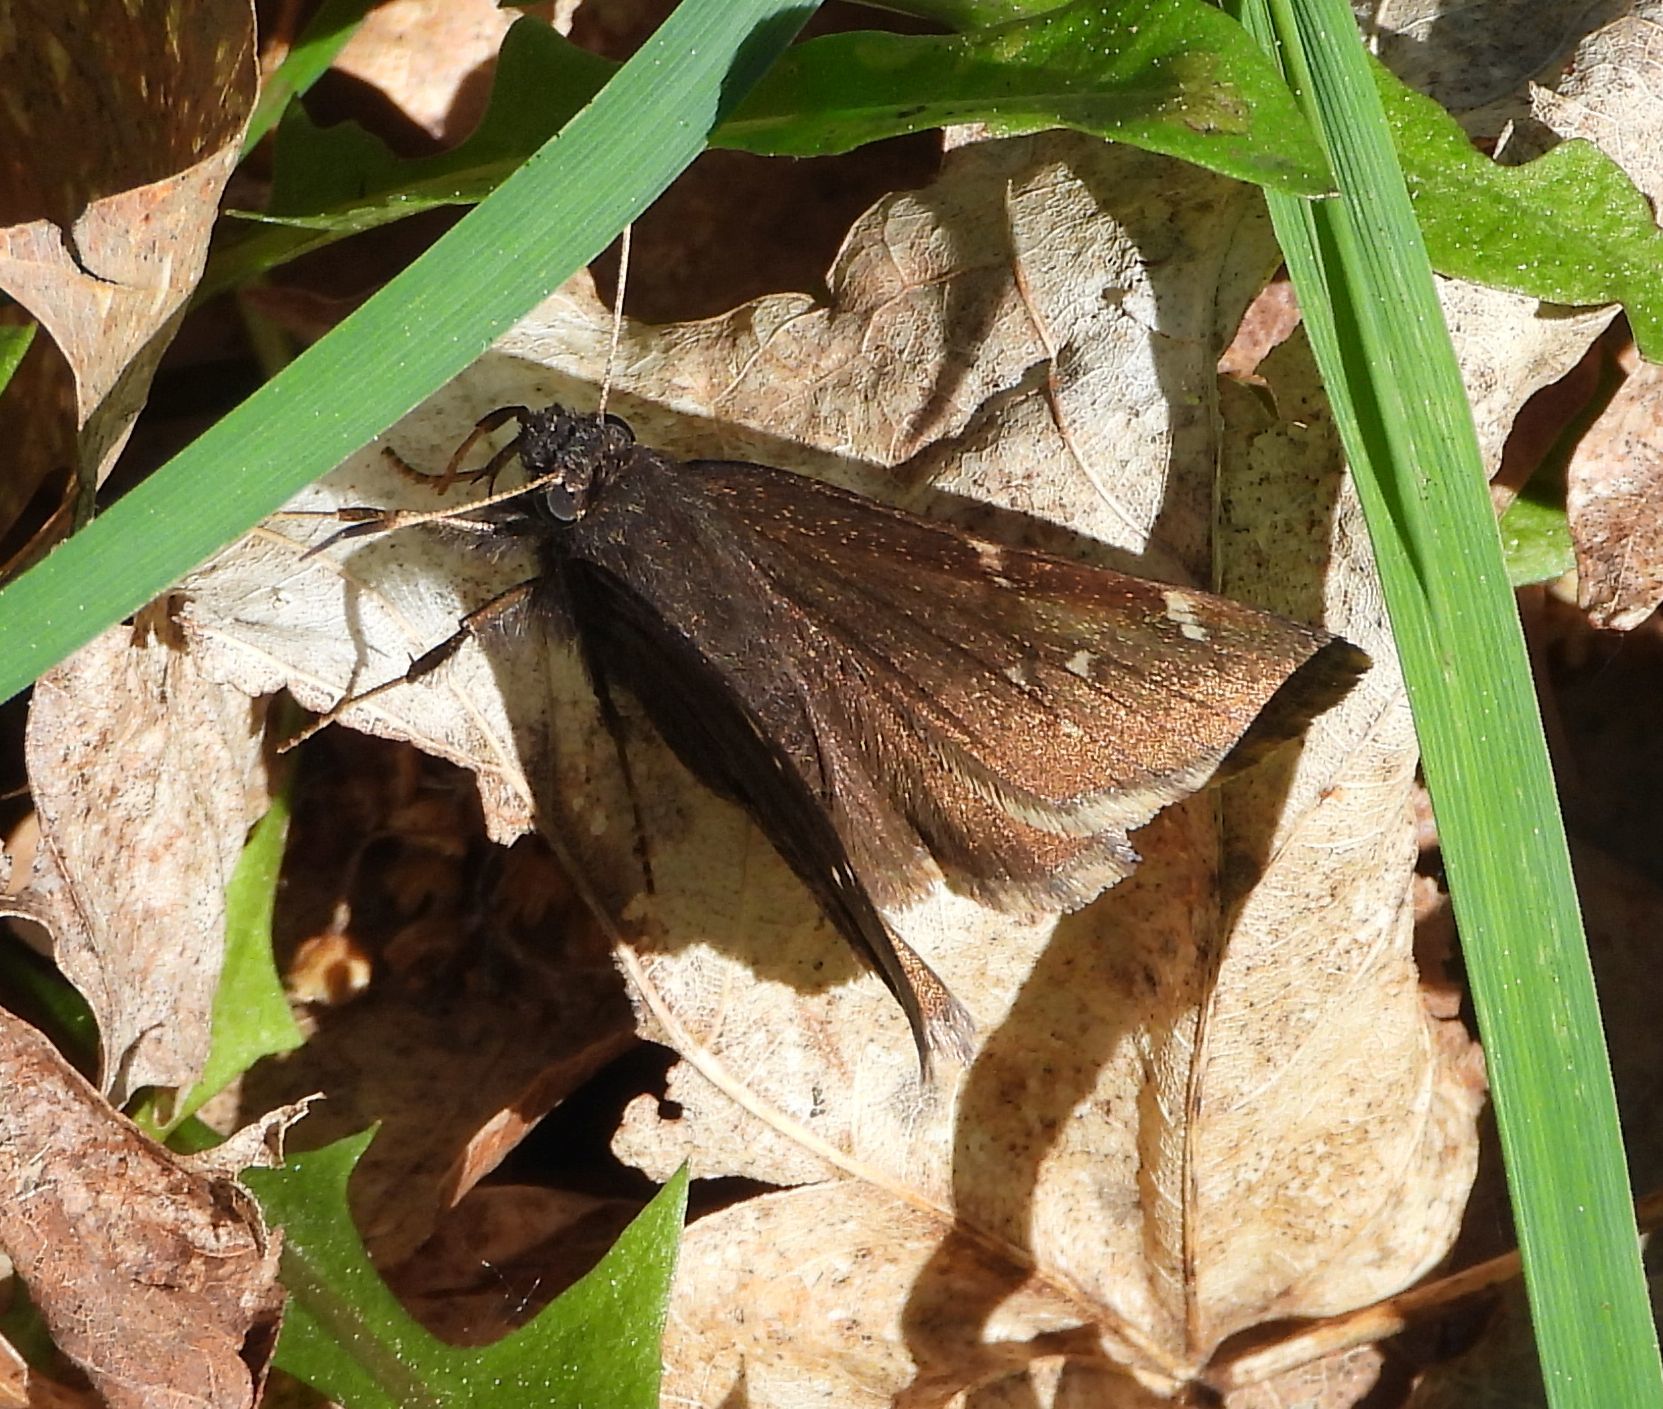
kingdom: Animalia
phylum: Arthropoda
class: Insecta
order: Lepidoptera
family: Hesperiidae
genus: Thorybes
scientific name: Thorybes pylades
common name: Northern cloudywing
